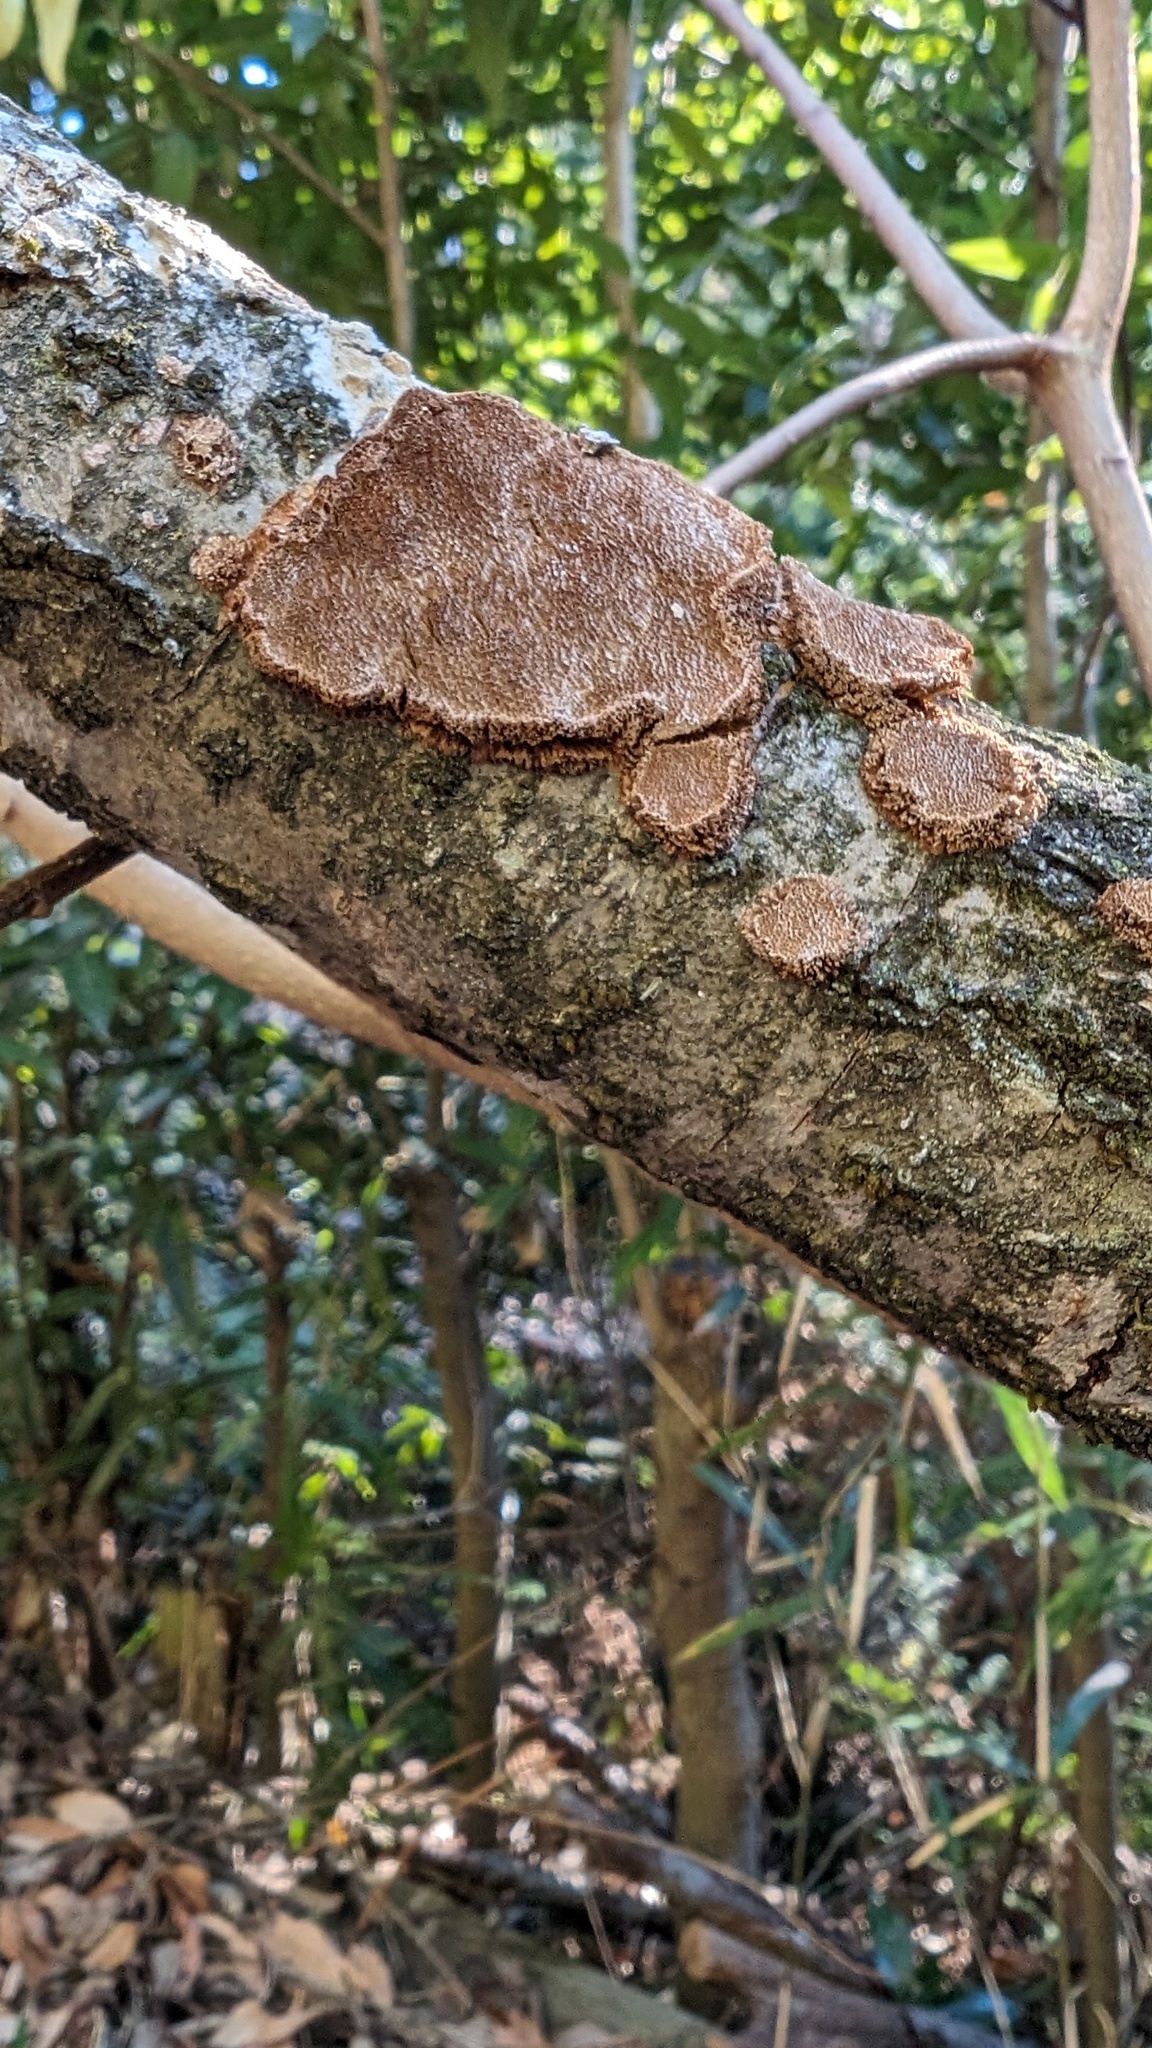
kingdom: Fungi
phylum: Basidiomycota
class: Agaricomycetes
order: Hymenochaetales
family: Hymenochaetaceae
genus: Fuscoporia
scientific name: Fuscoporia setifera
